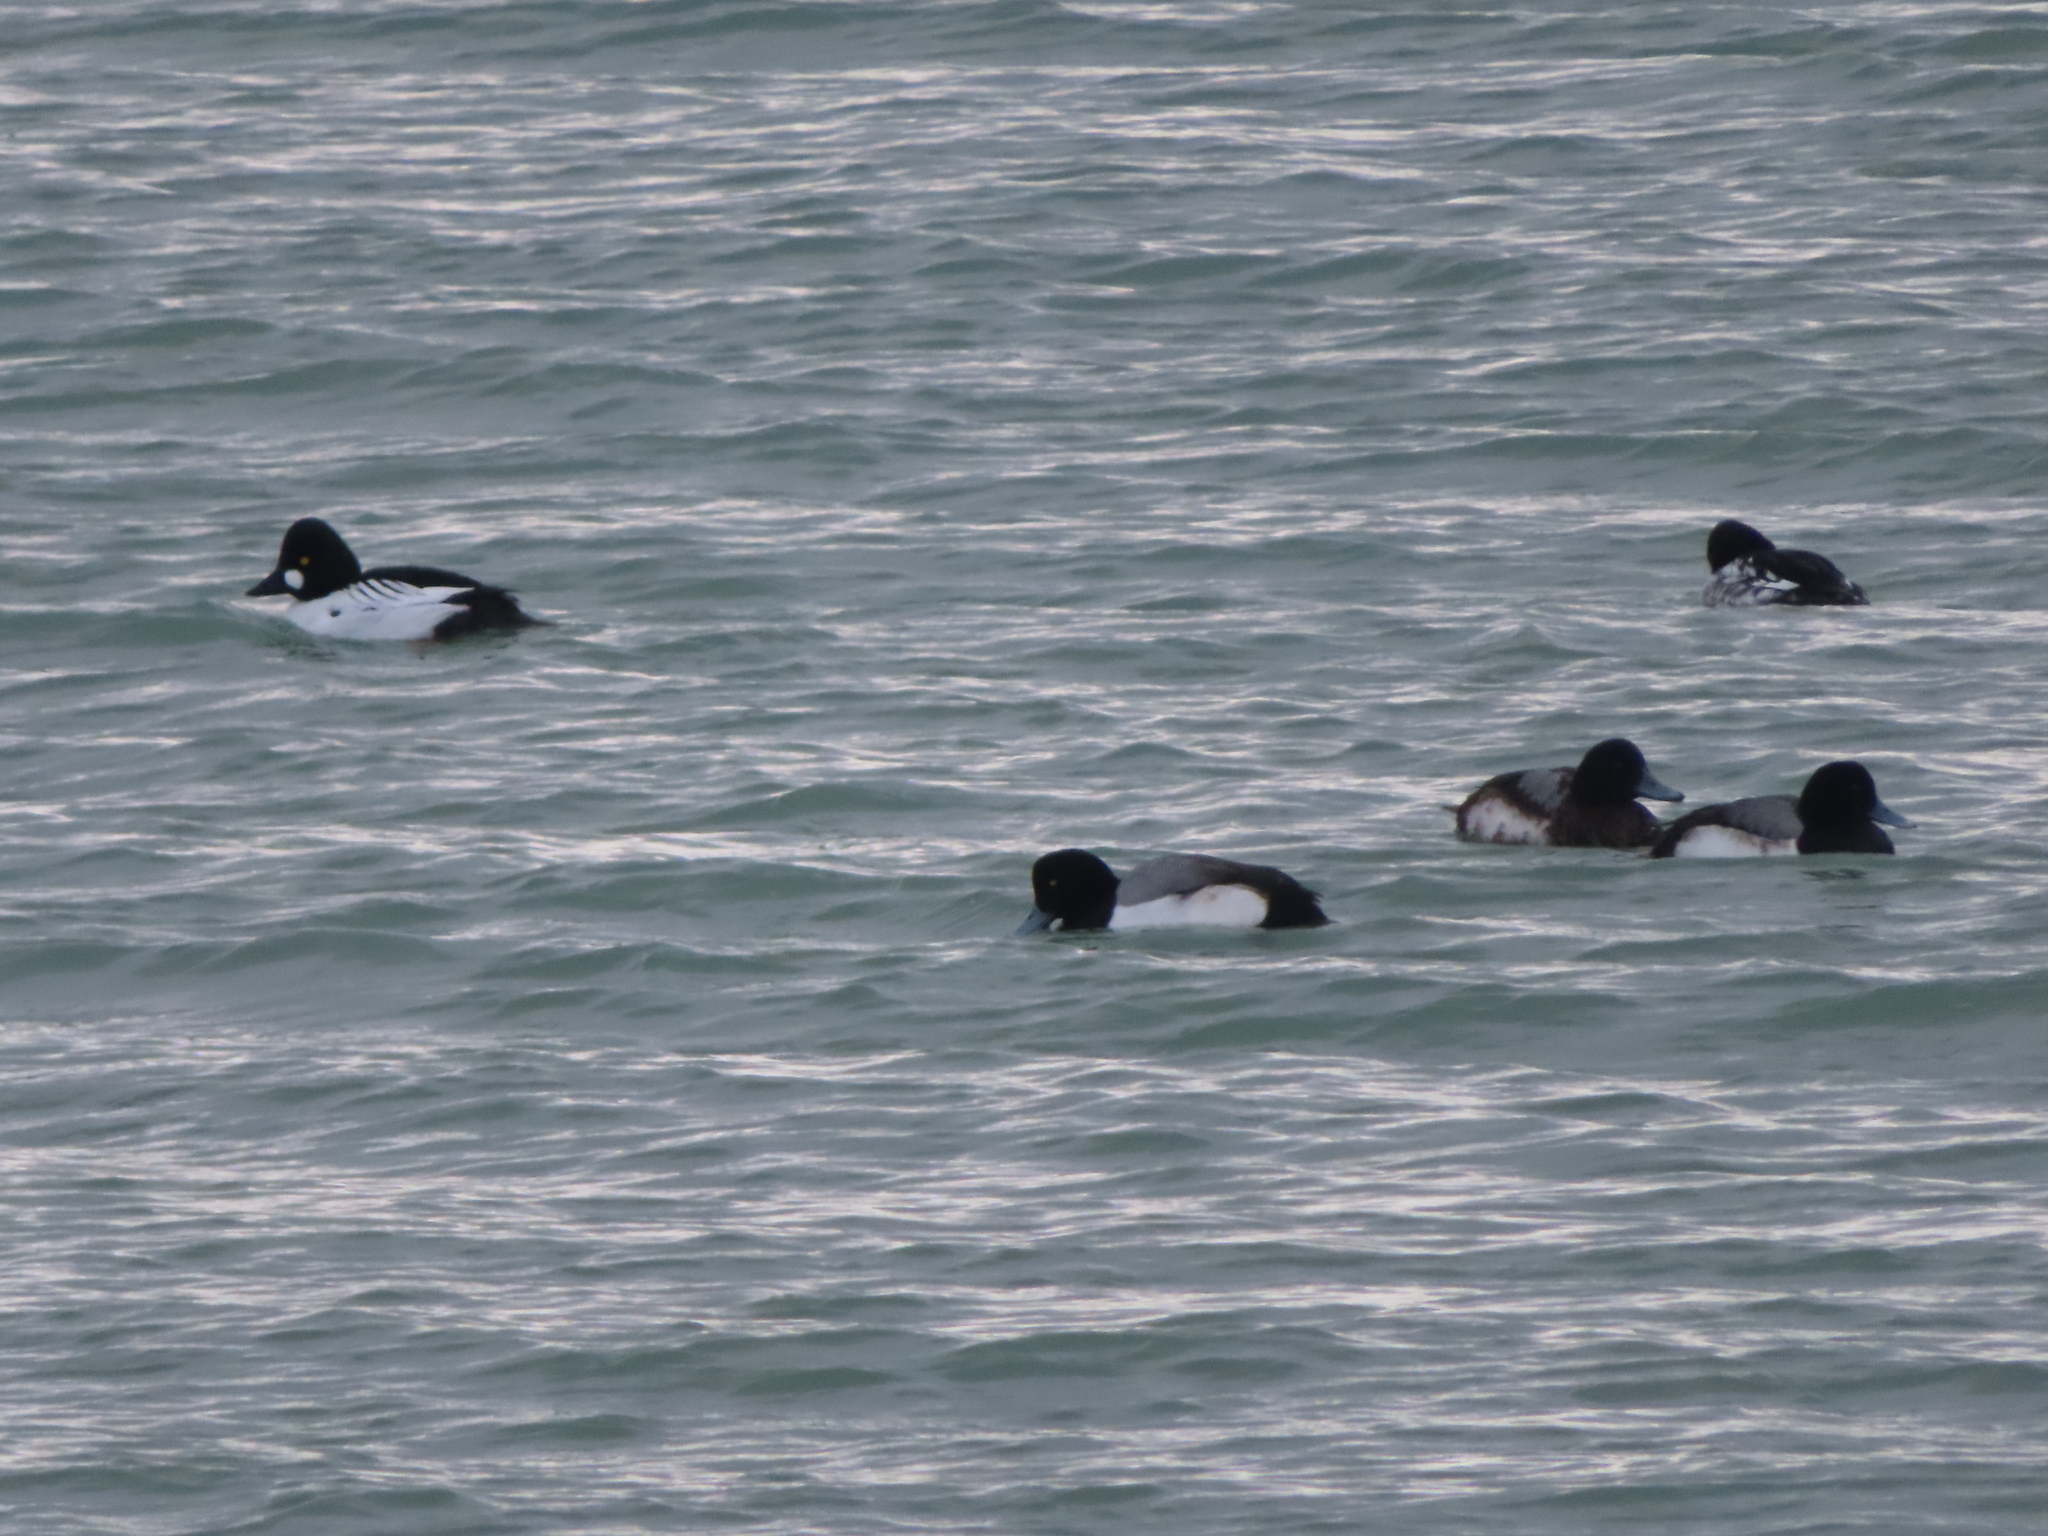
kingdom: Animalia
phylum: Chordata
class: Aves
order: Anseriformes
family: Anatidae
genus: Aythya
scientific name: Aythya marila
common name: Greater scaup
